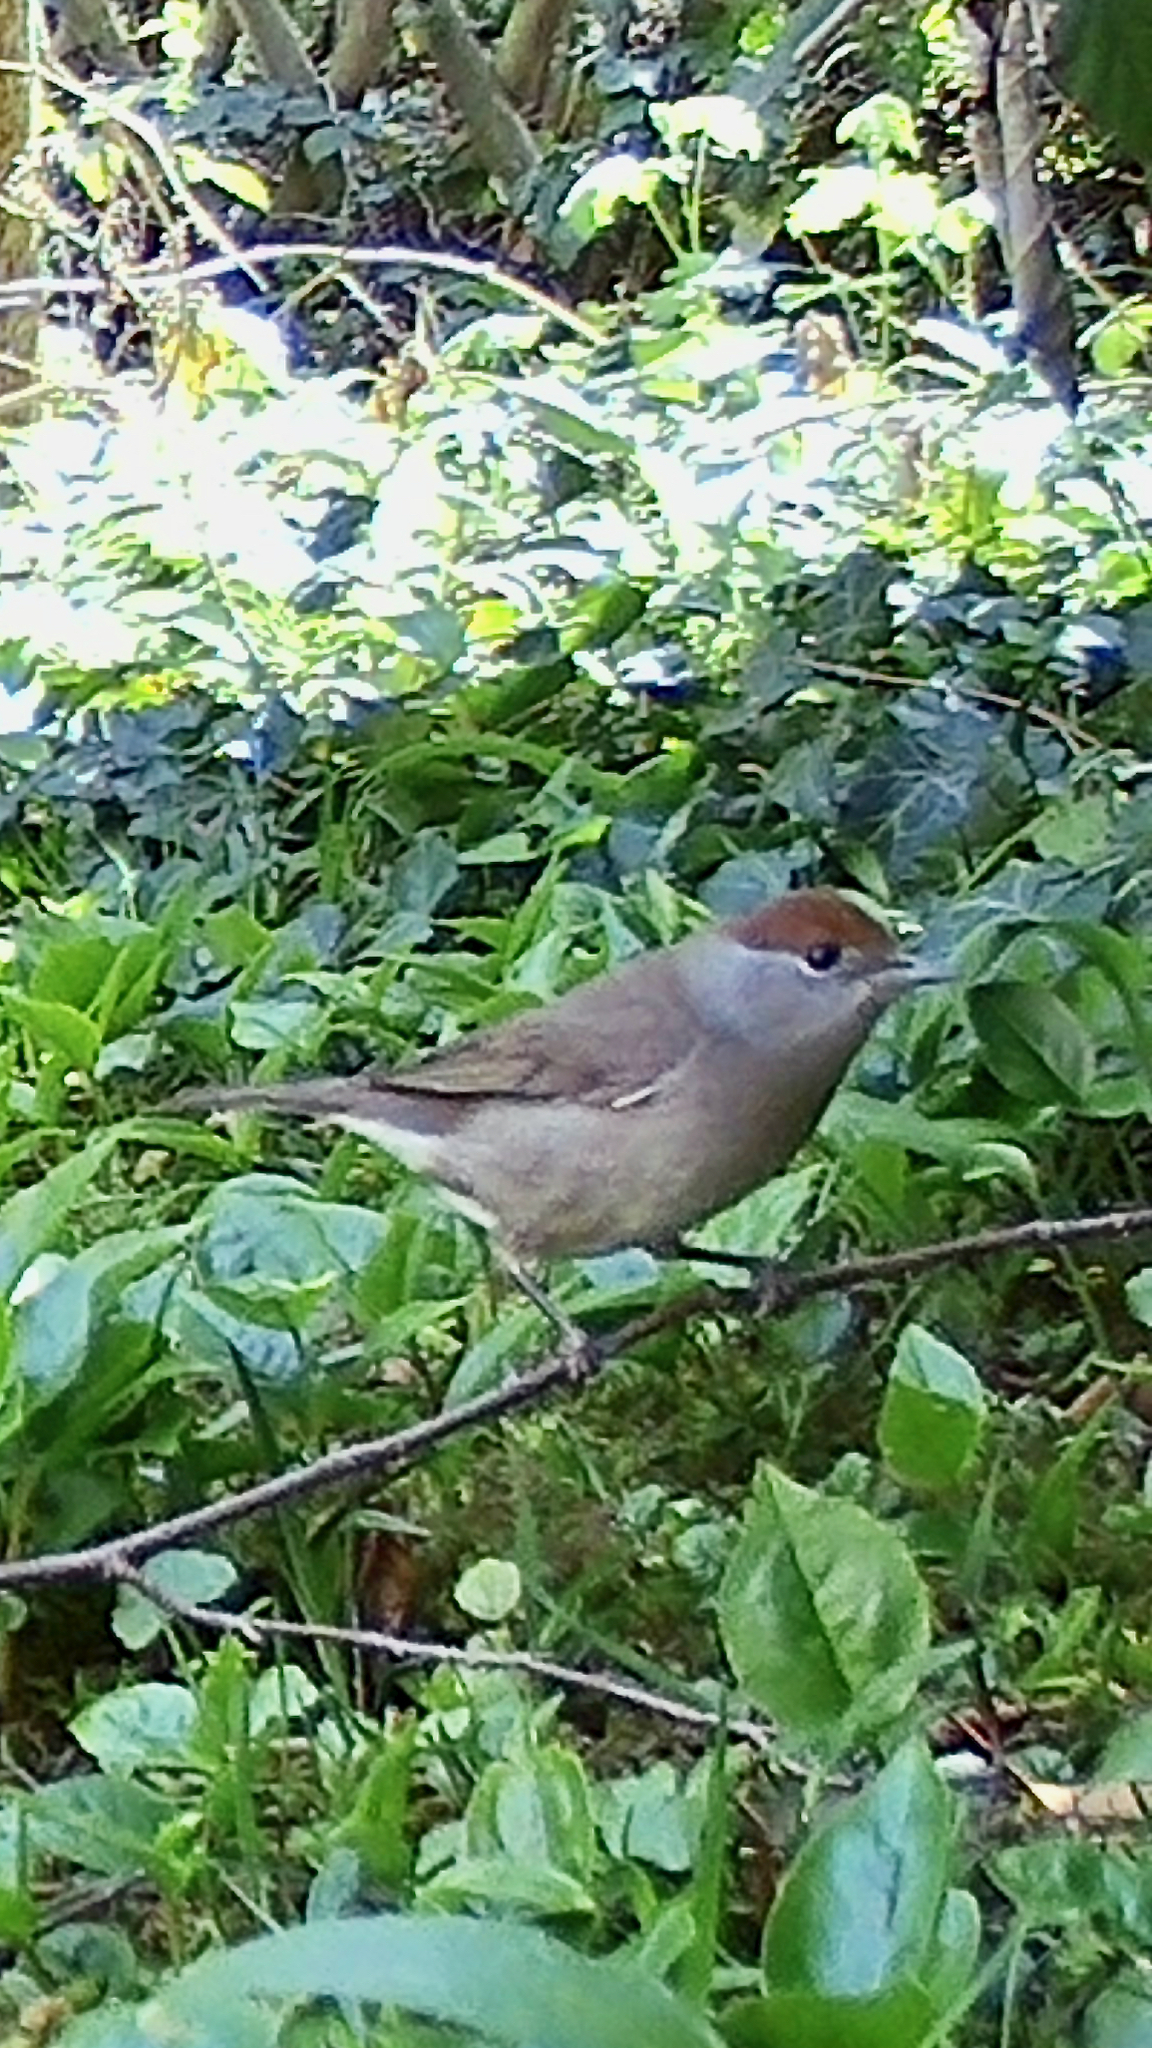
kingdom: Animalia
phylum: Chordata
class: Aves
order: Passeriformes
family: Sylviidae
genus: Sylvia
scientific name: Sylvia atricapilla
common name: Eurasian blackcap
